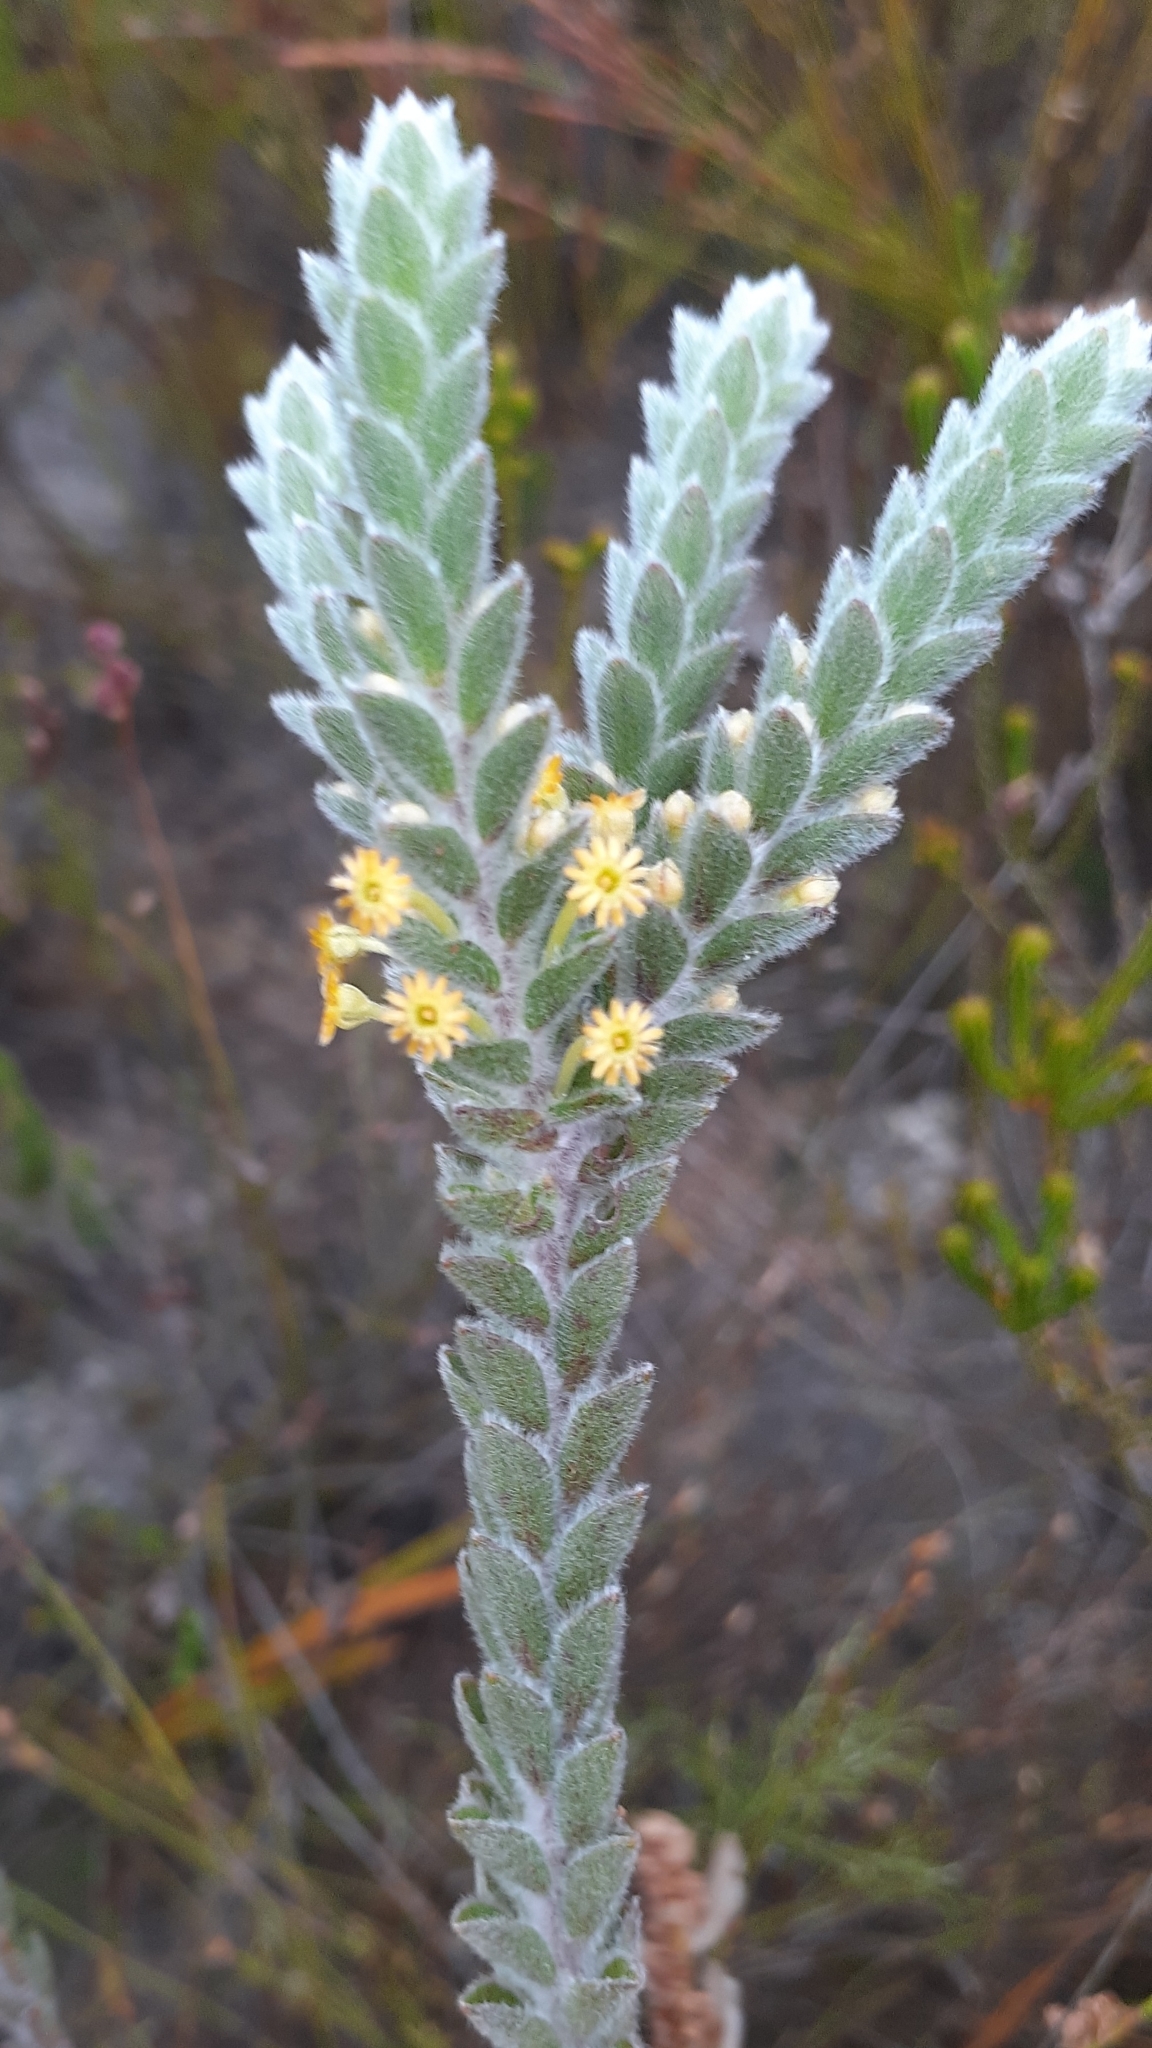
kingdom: Plantae
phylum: Tracheophyta
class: Magnoliopsida
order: Malvales
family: Thymelaeaceae
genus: Struthiola
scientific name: Struthiola tomentosa
